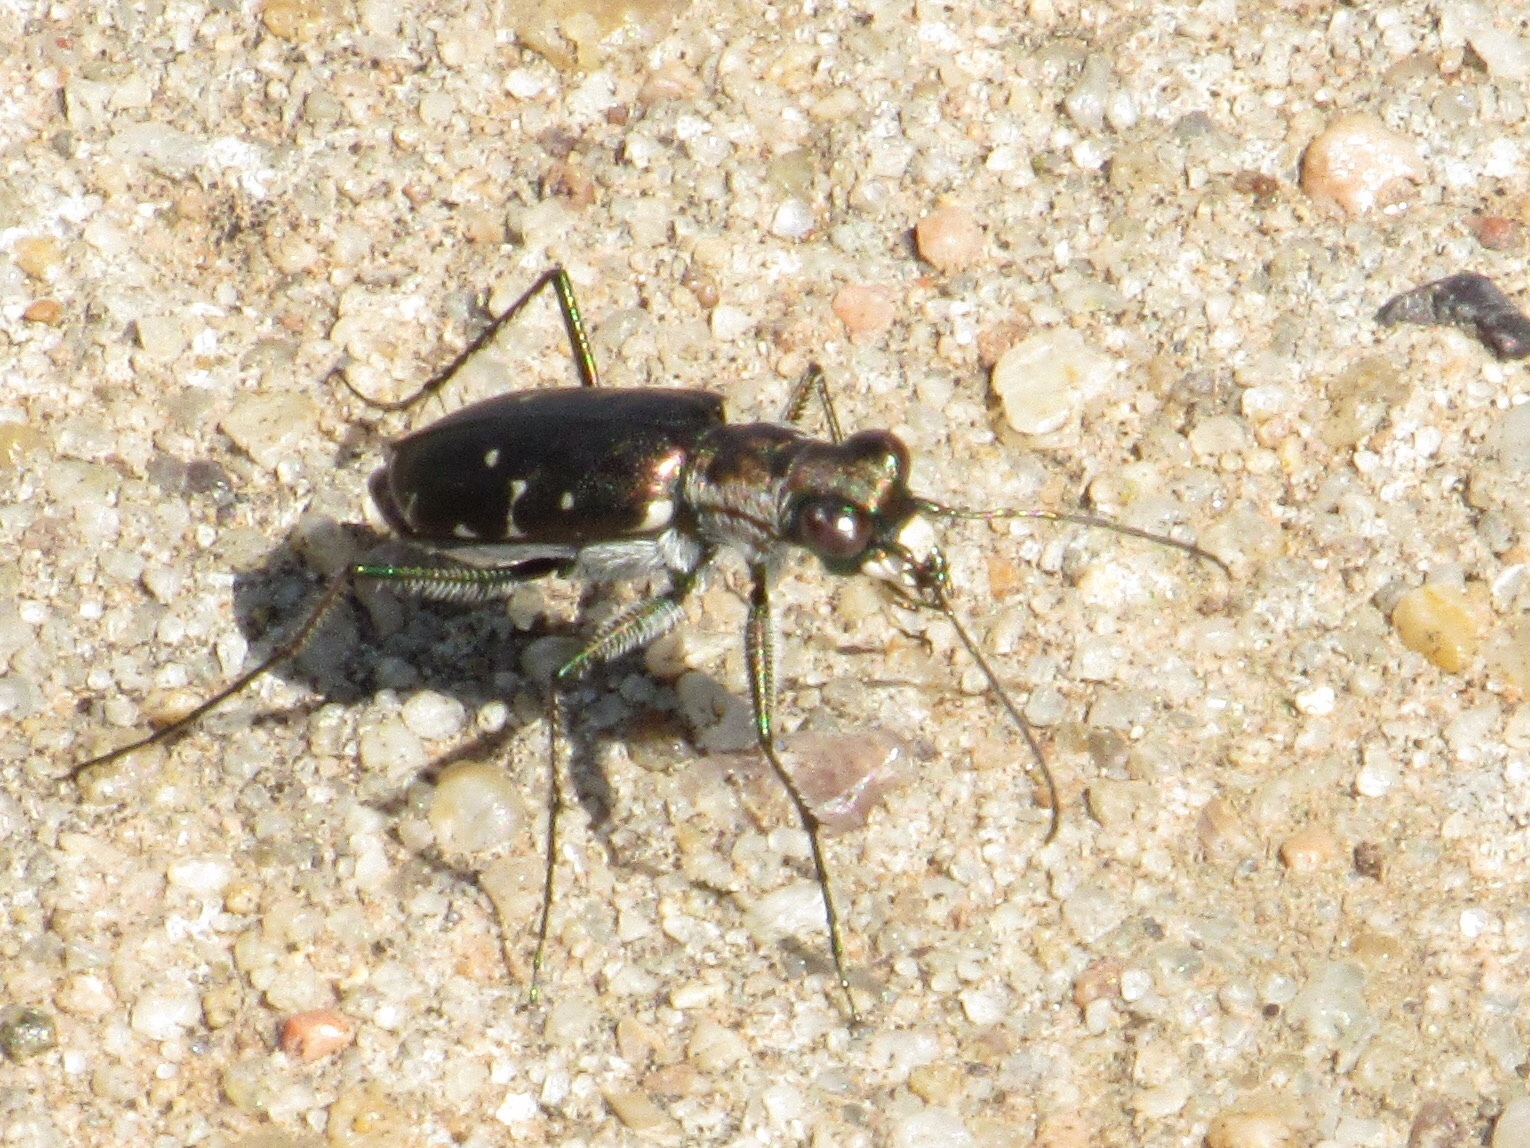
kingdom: Animalia
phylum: Arthropoda
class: Insecta
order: Coleoptera
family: Carabidae
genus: Cicindela
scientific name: Cicindela punctulata
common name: Punctured tiger beetle
